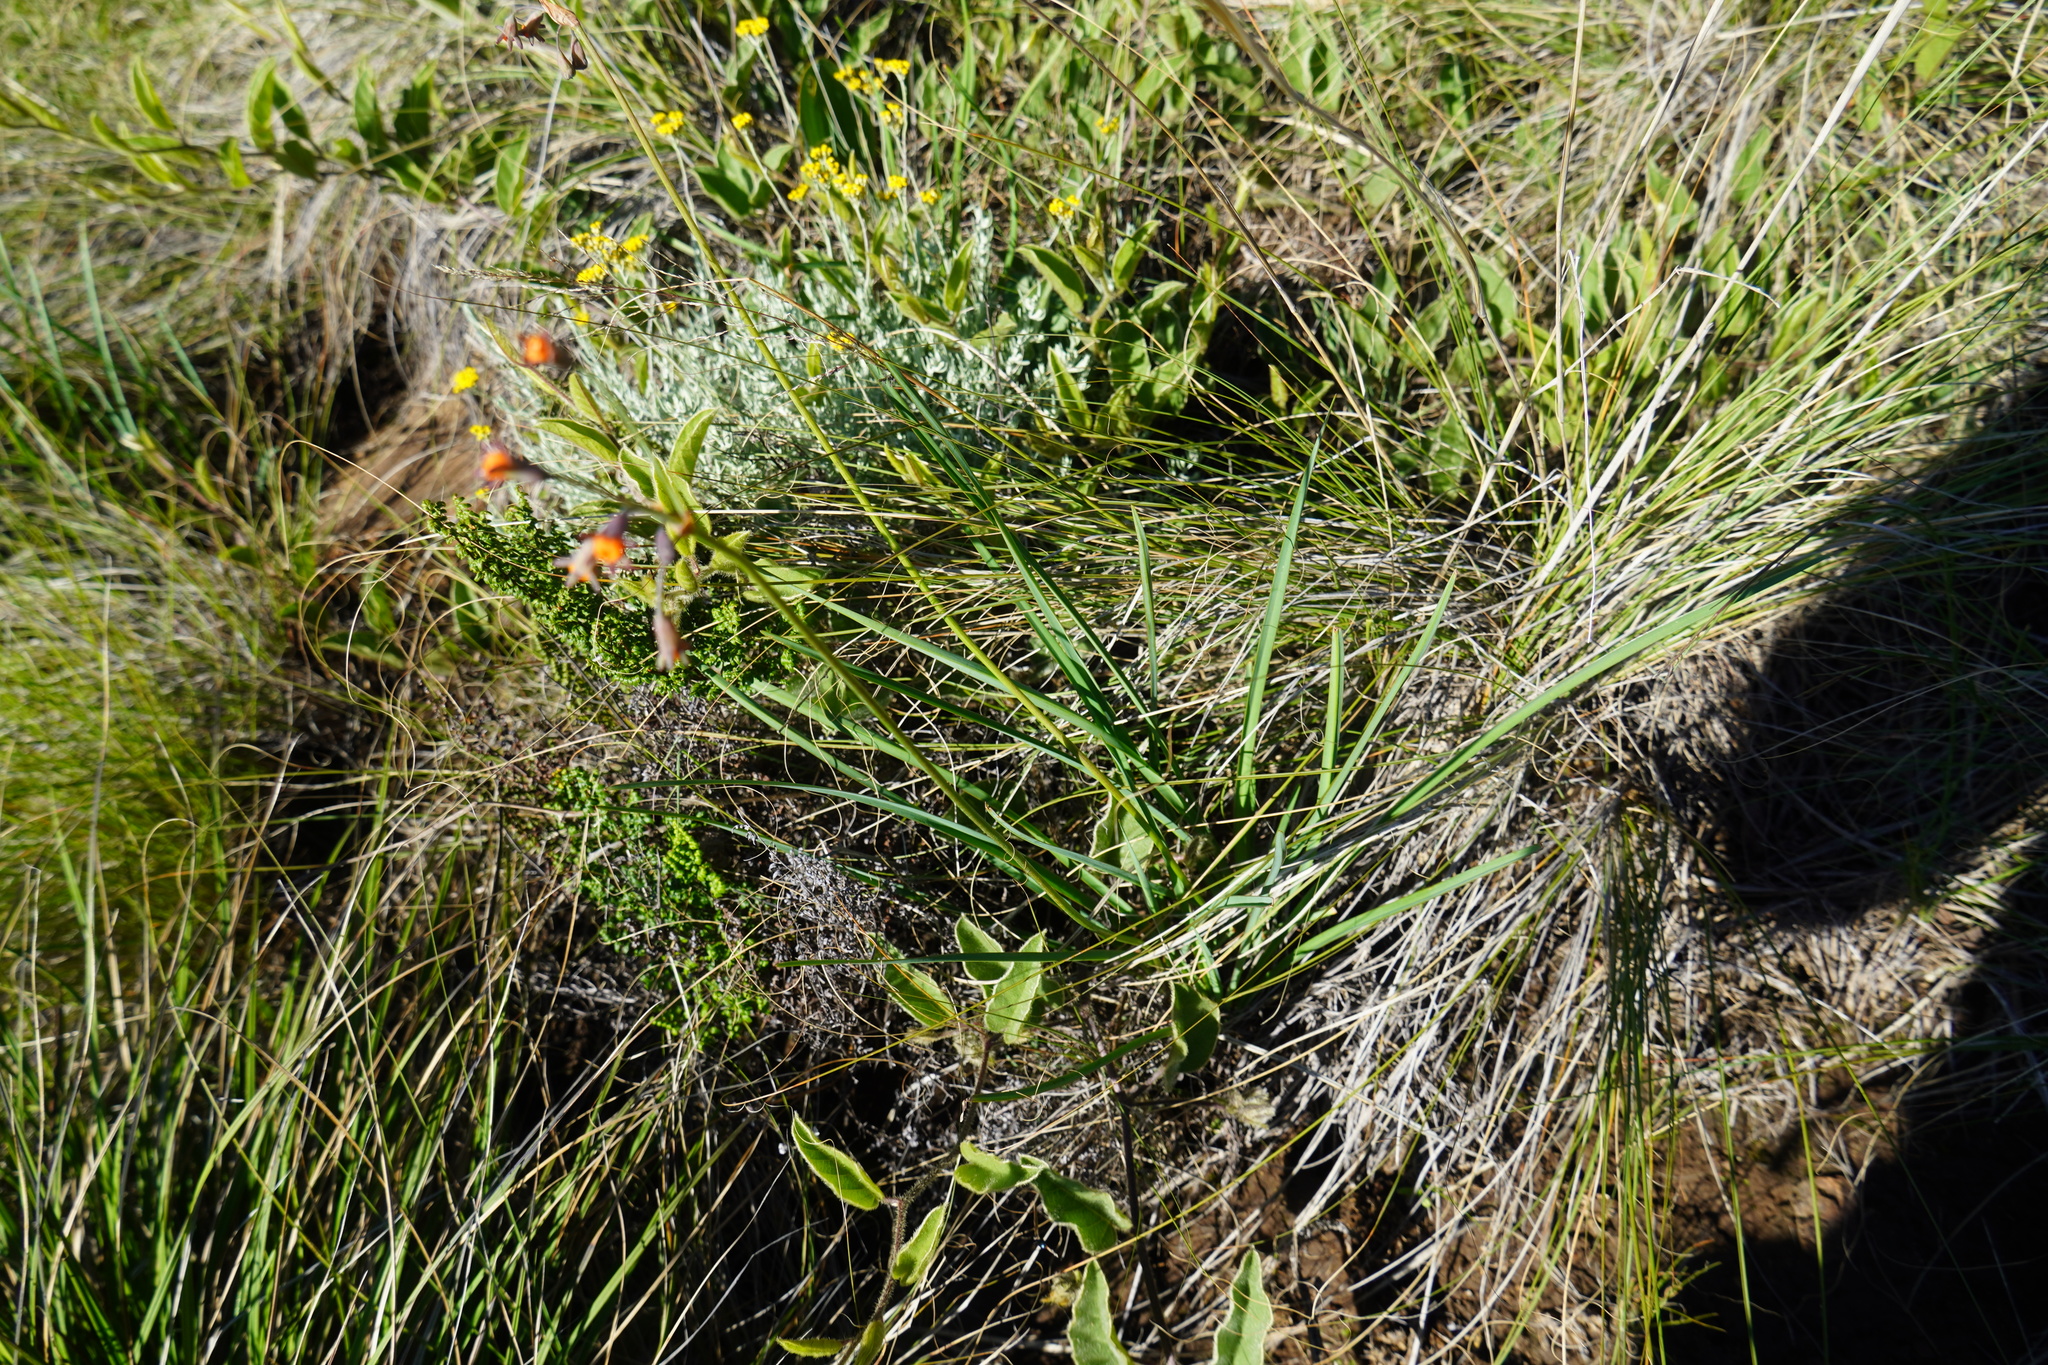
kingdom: Plantae
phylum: Tracheophyta
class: Liliopsida
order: Asparagales
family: Amaryllidaceae
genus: Tulbaghia
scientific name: Tulbaghia leucantha
